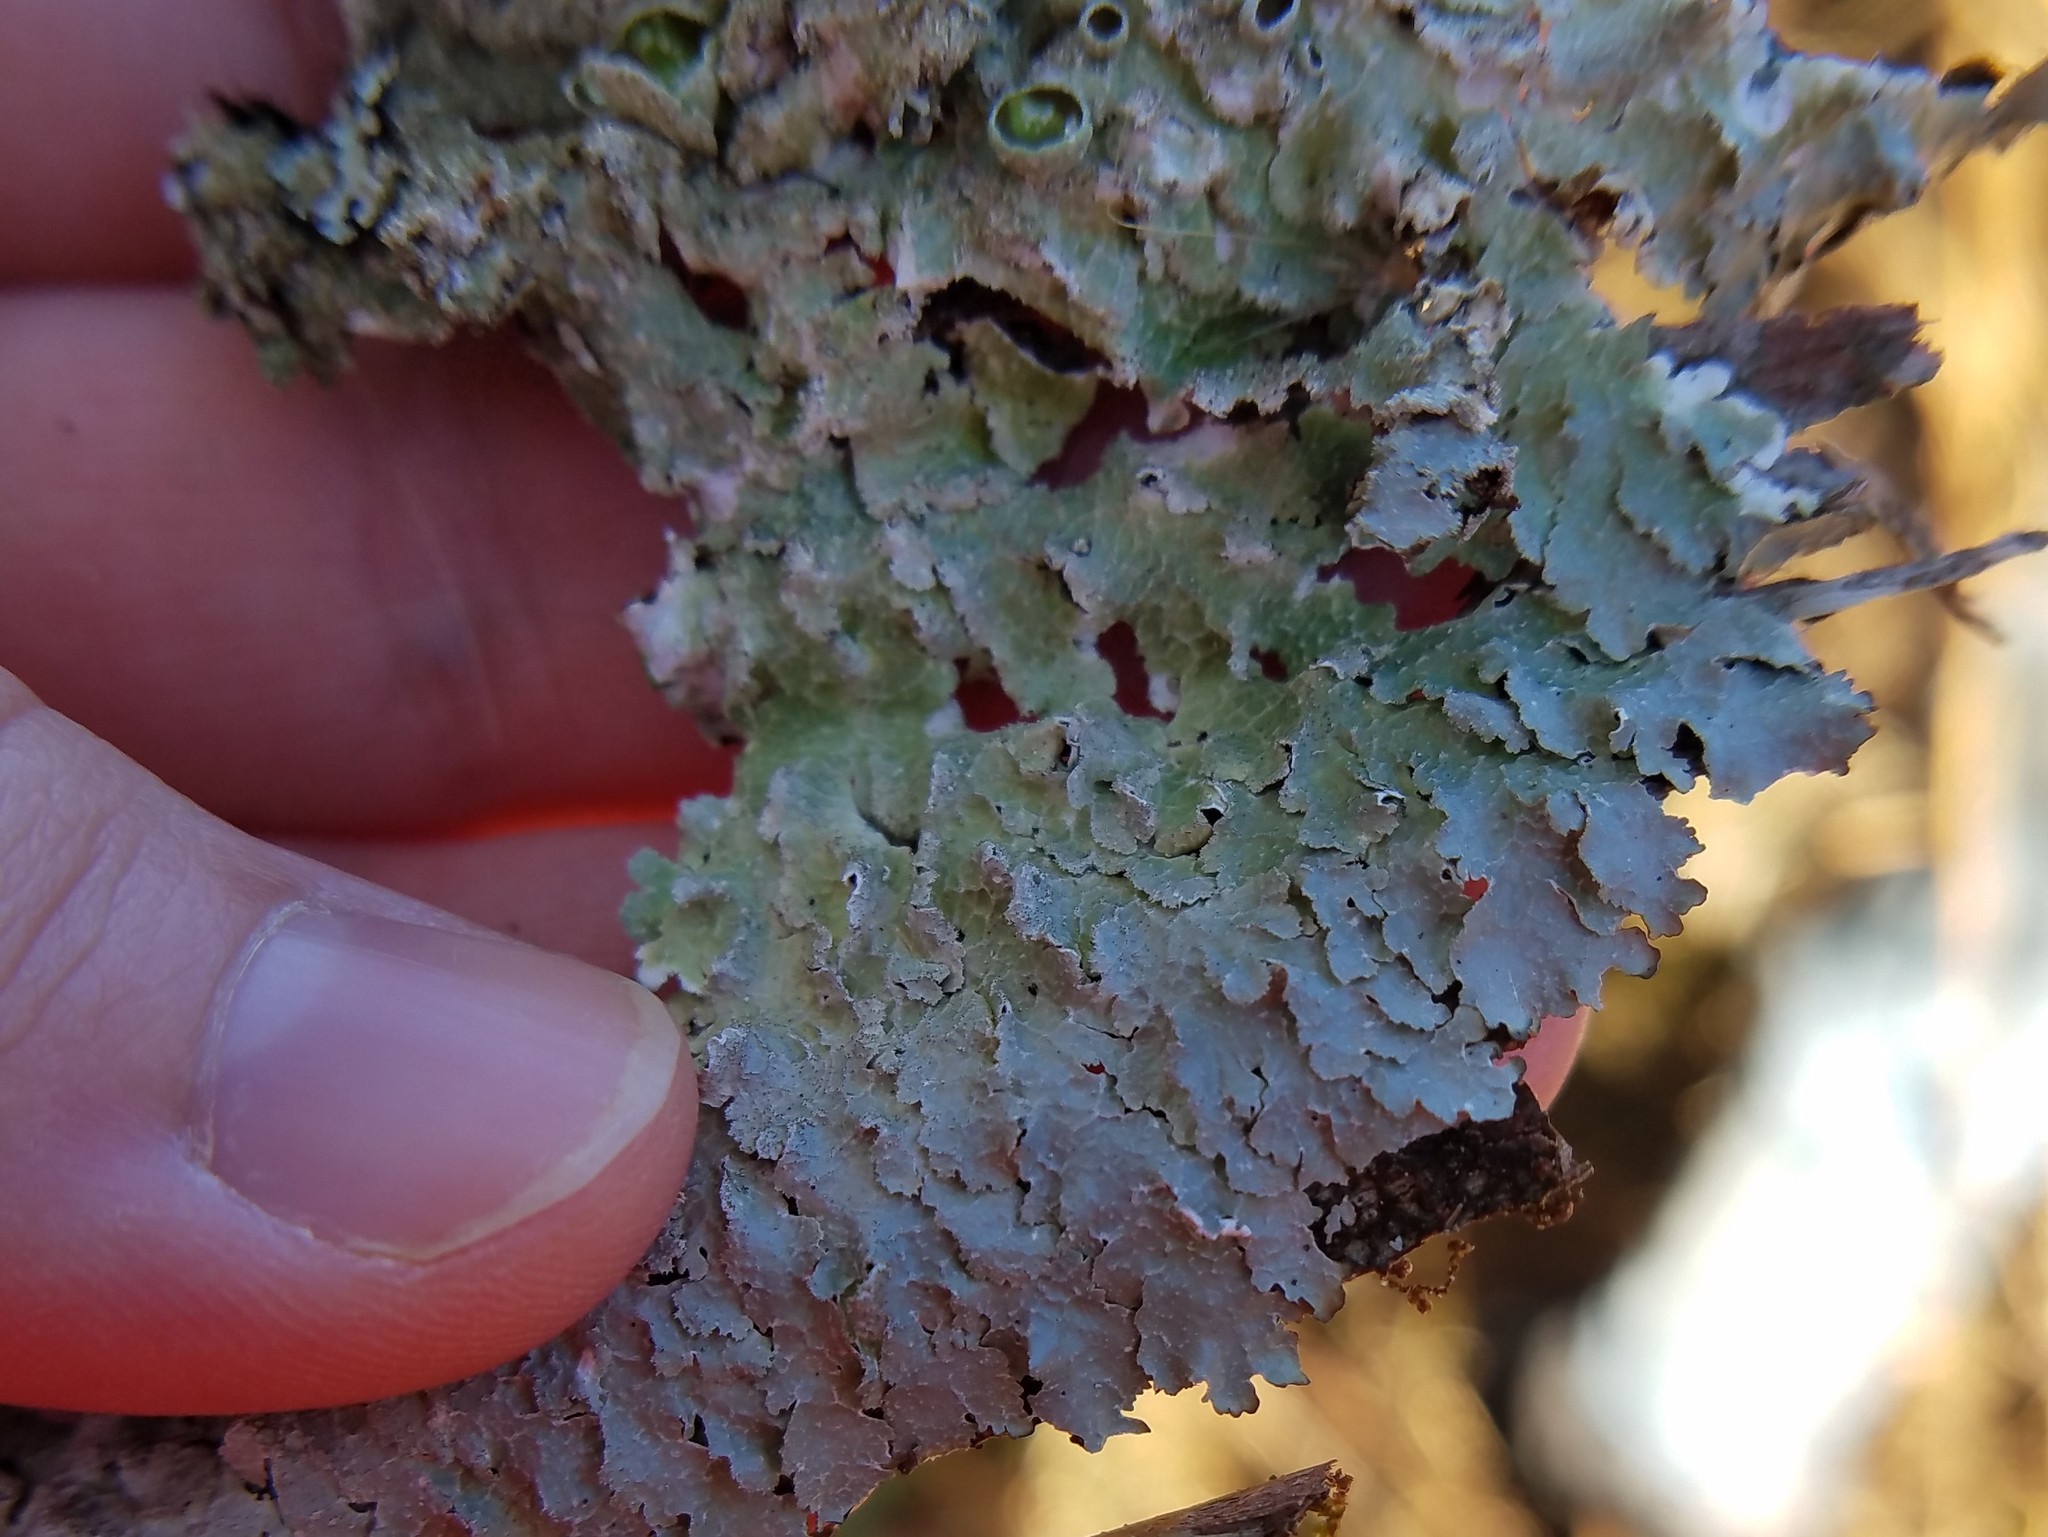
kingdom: Fungi
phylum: Ascomycota
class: Lecanoromycetes
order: Lecanorales
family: Parmeliaceae
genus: Punctelia
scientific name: Punctelia rudecta
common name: Rough speckled shield lichen
